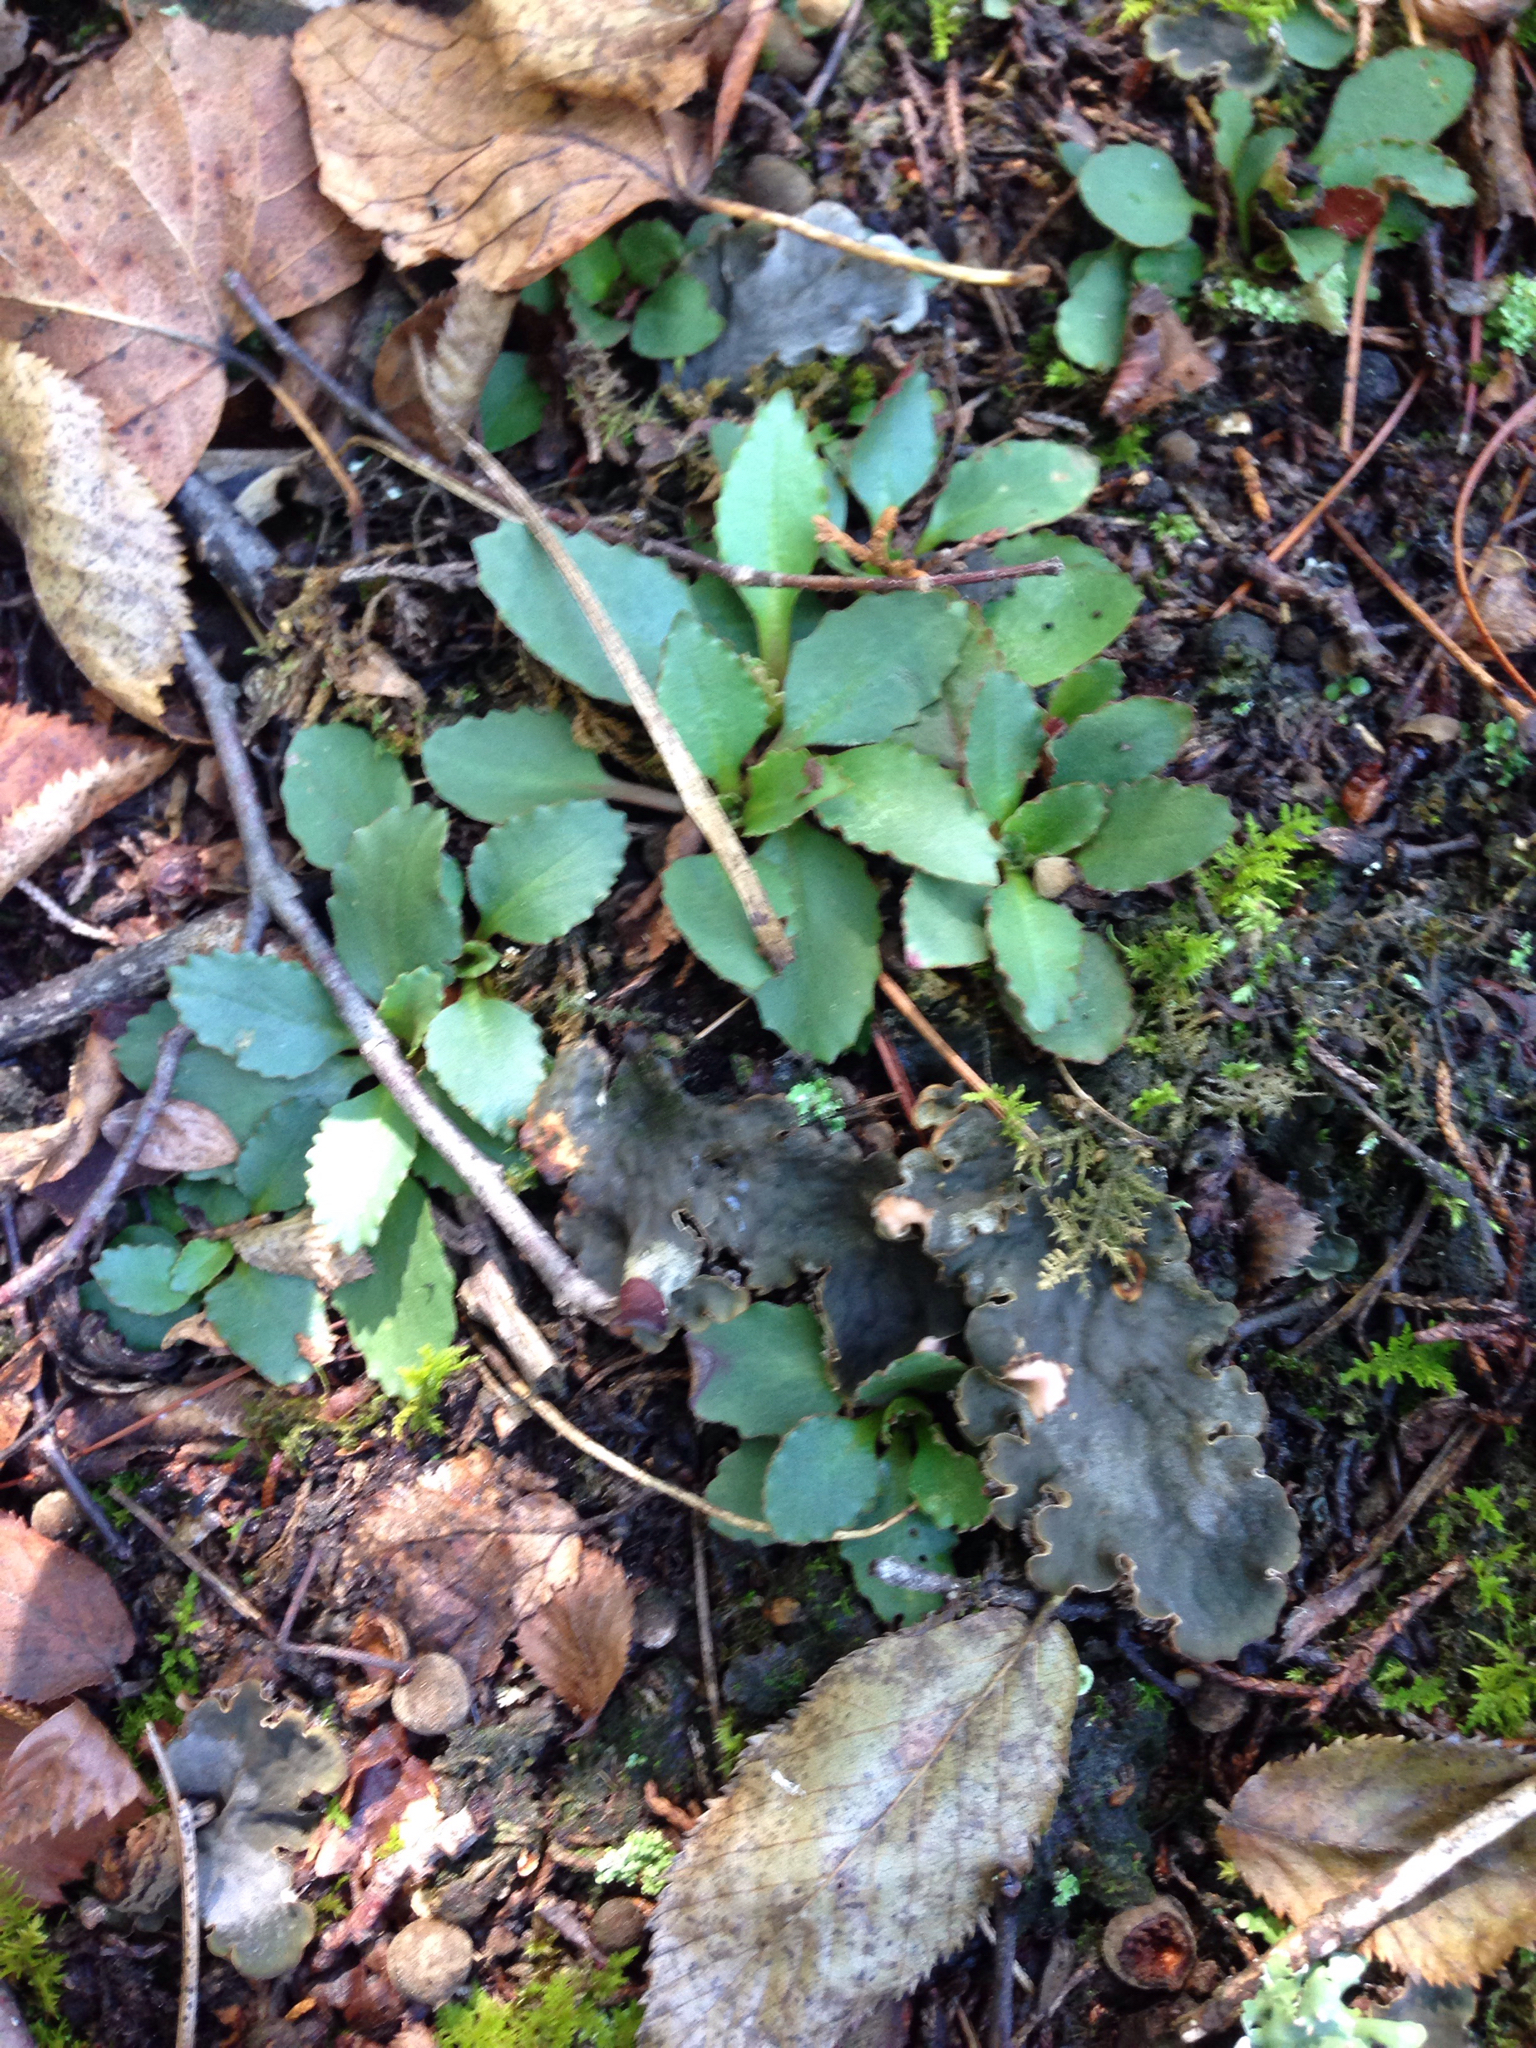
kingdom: Plantae
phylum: Tracheophyta
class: Magnoliopsida
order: Saxifragales
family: Saxifragaceae
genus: Micranthes
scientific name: Micranthes virginiensis
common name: Early saxifrage
